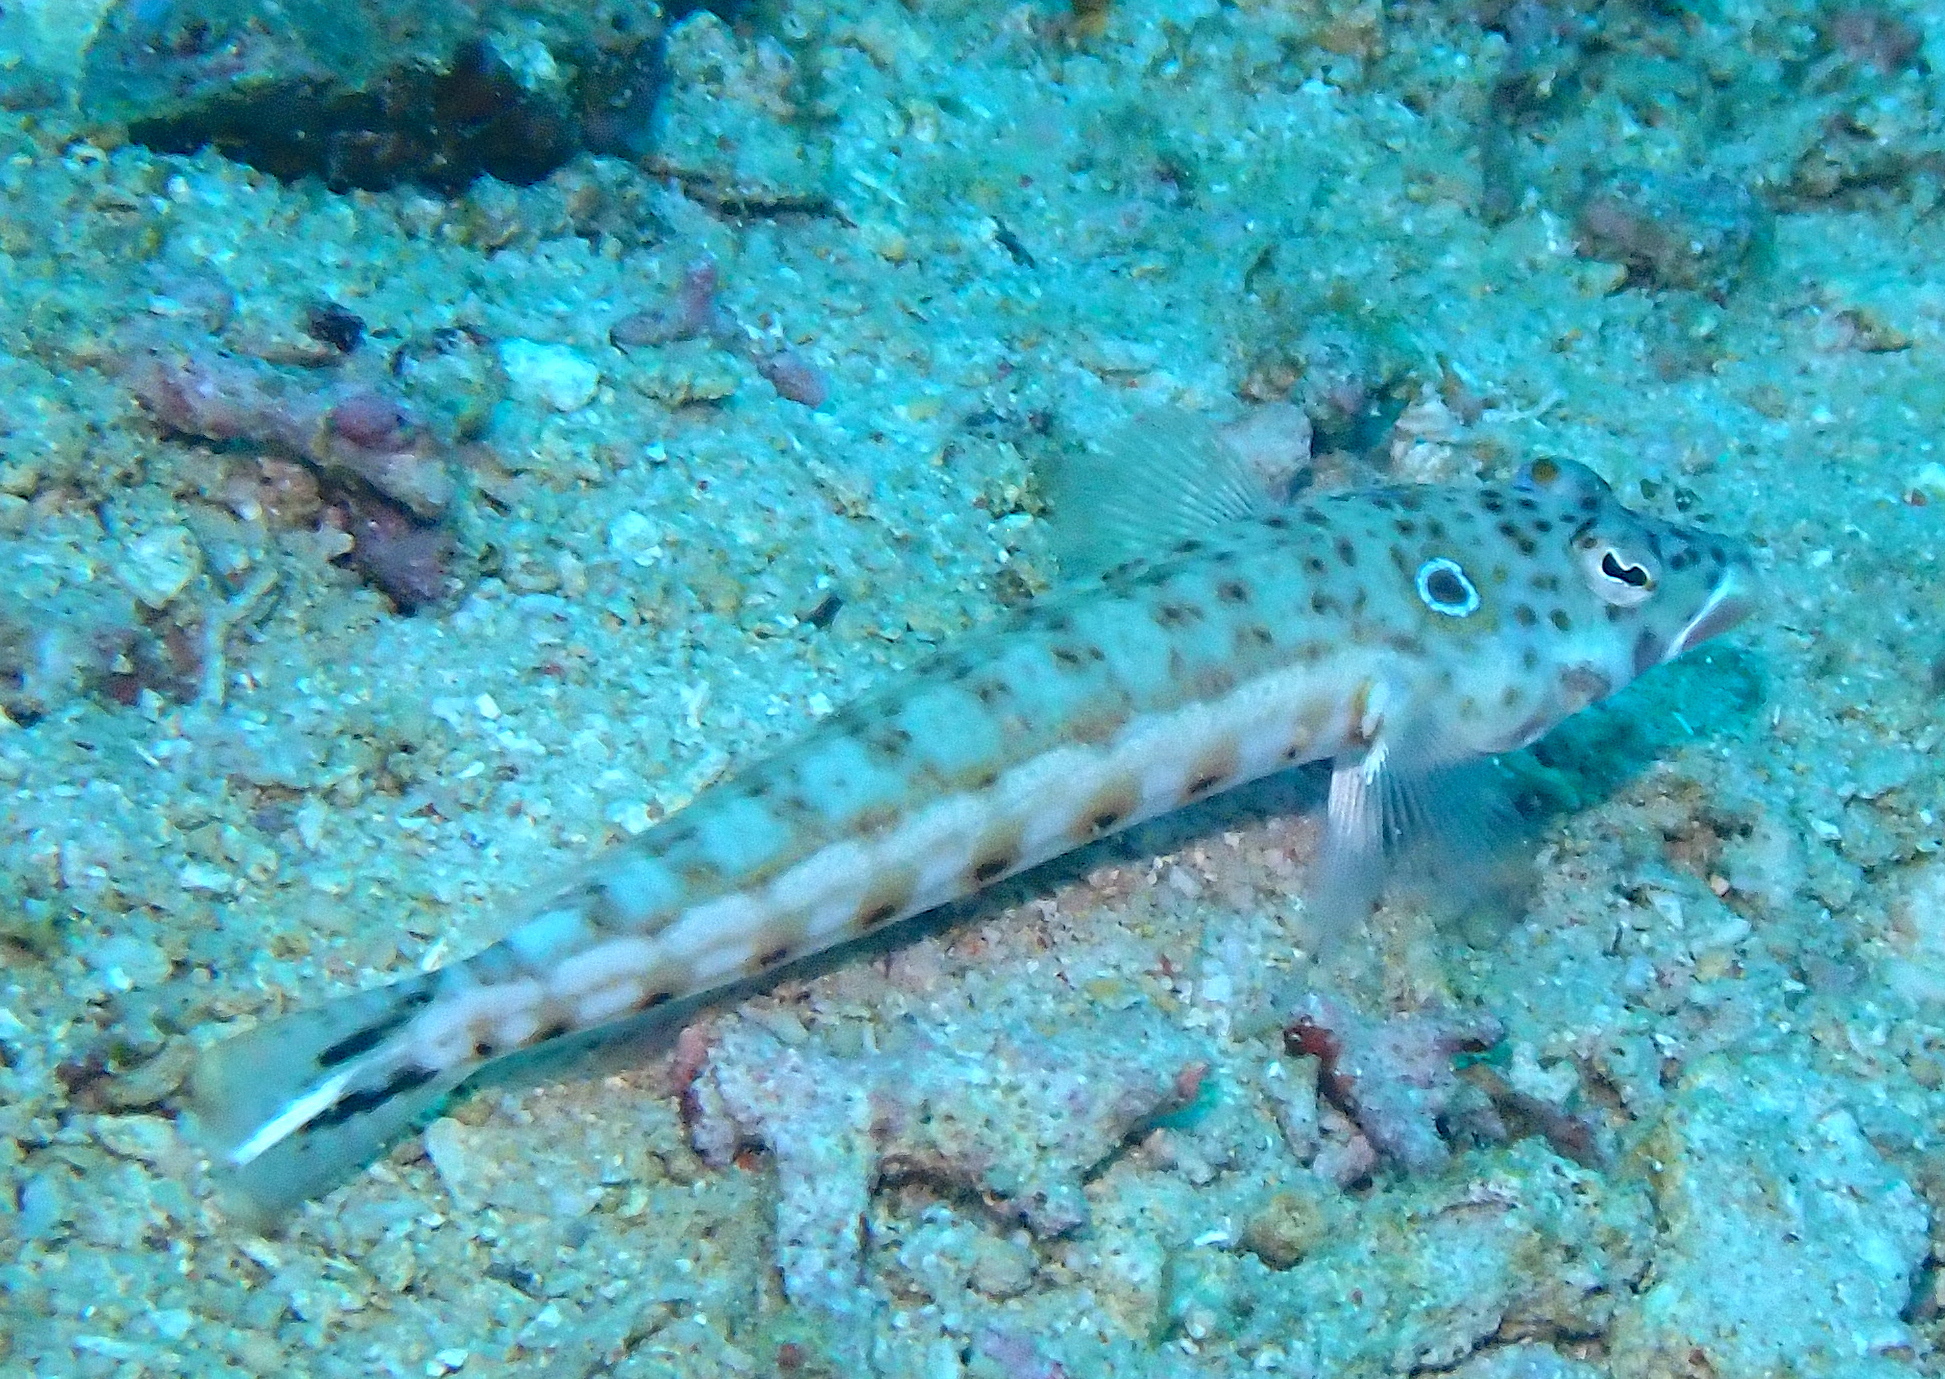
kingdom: Animalia
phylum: Chordata
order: Perciformes
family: Pinguipedidae
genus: Parapercis
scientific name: Parapercis clathrata
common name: Latticed sandperch
